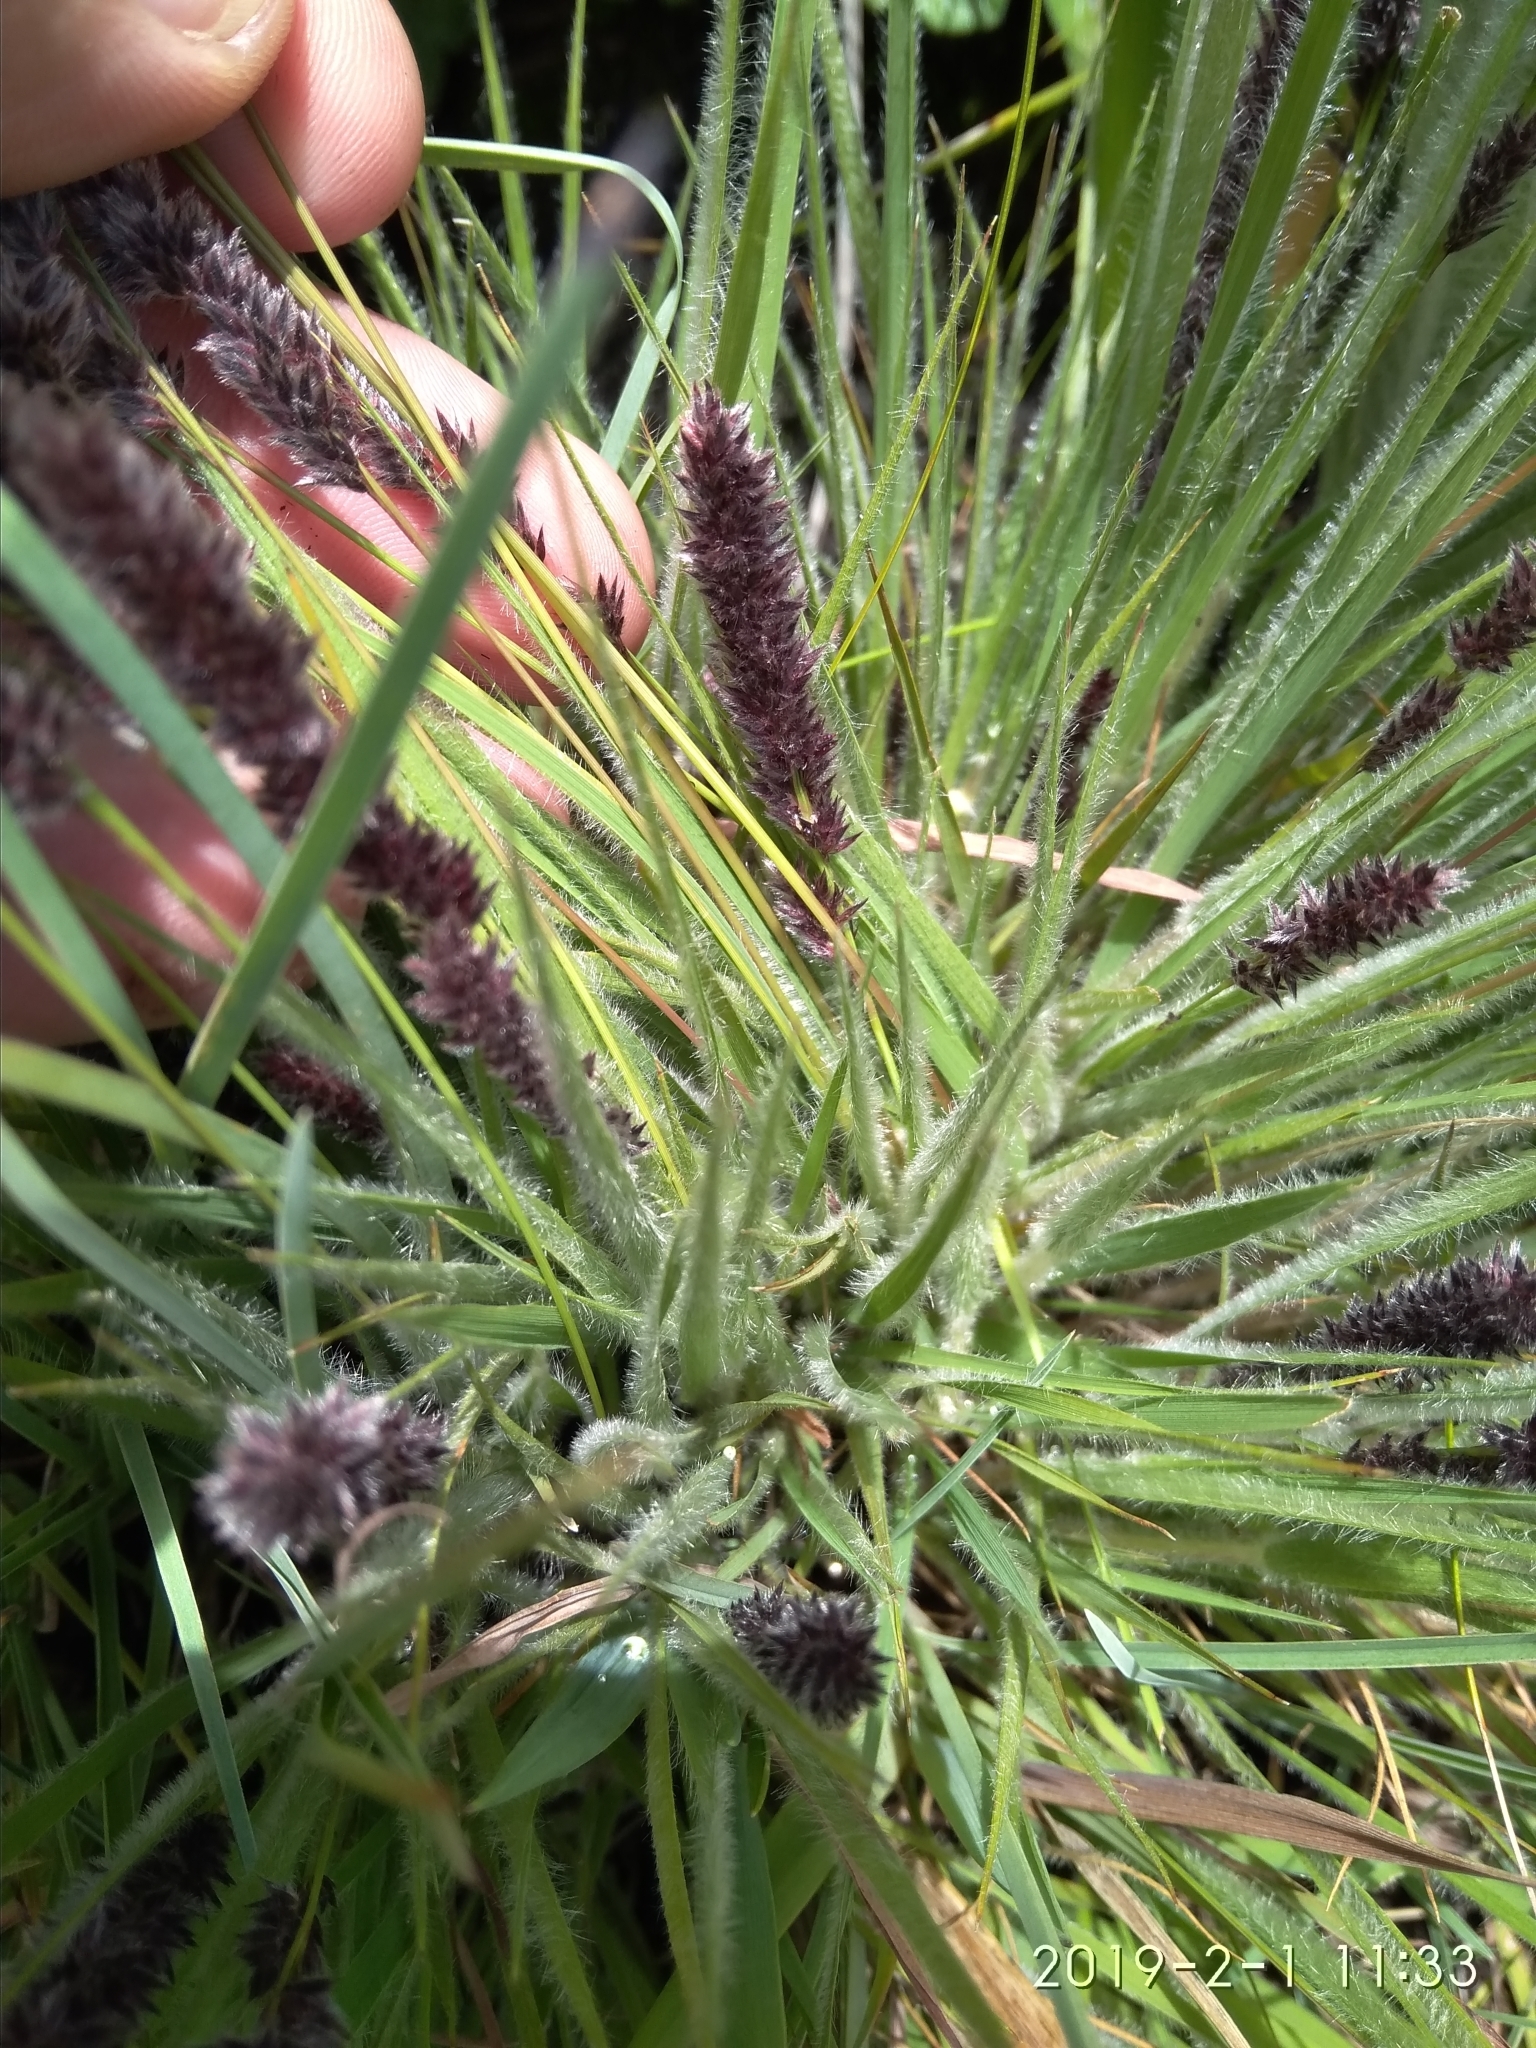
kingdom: Plantae
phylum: Tracheophyta
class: Liliopsida
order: Poales
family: Poaceae
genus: Stiburus
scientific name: Stiburus alopecuroides
